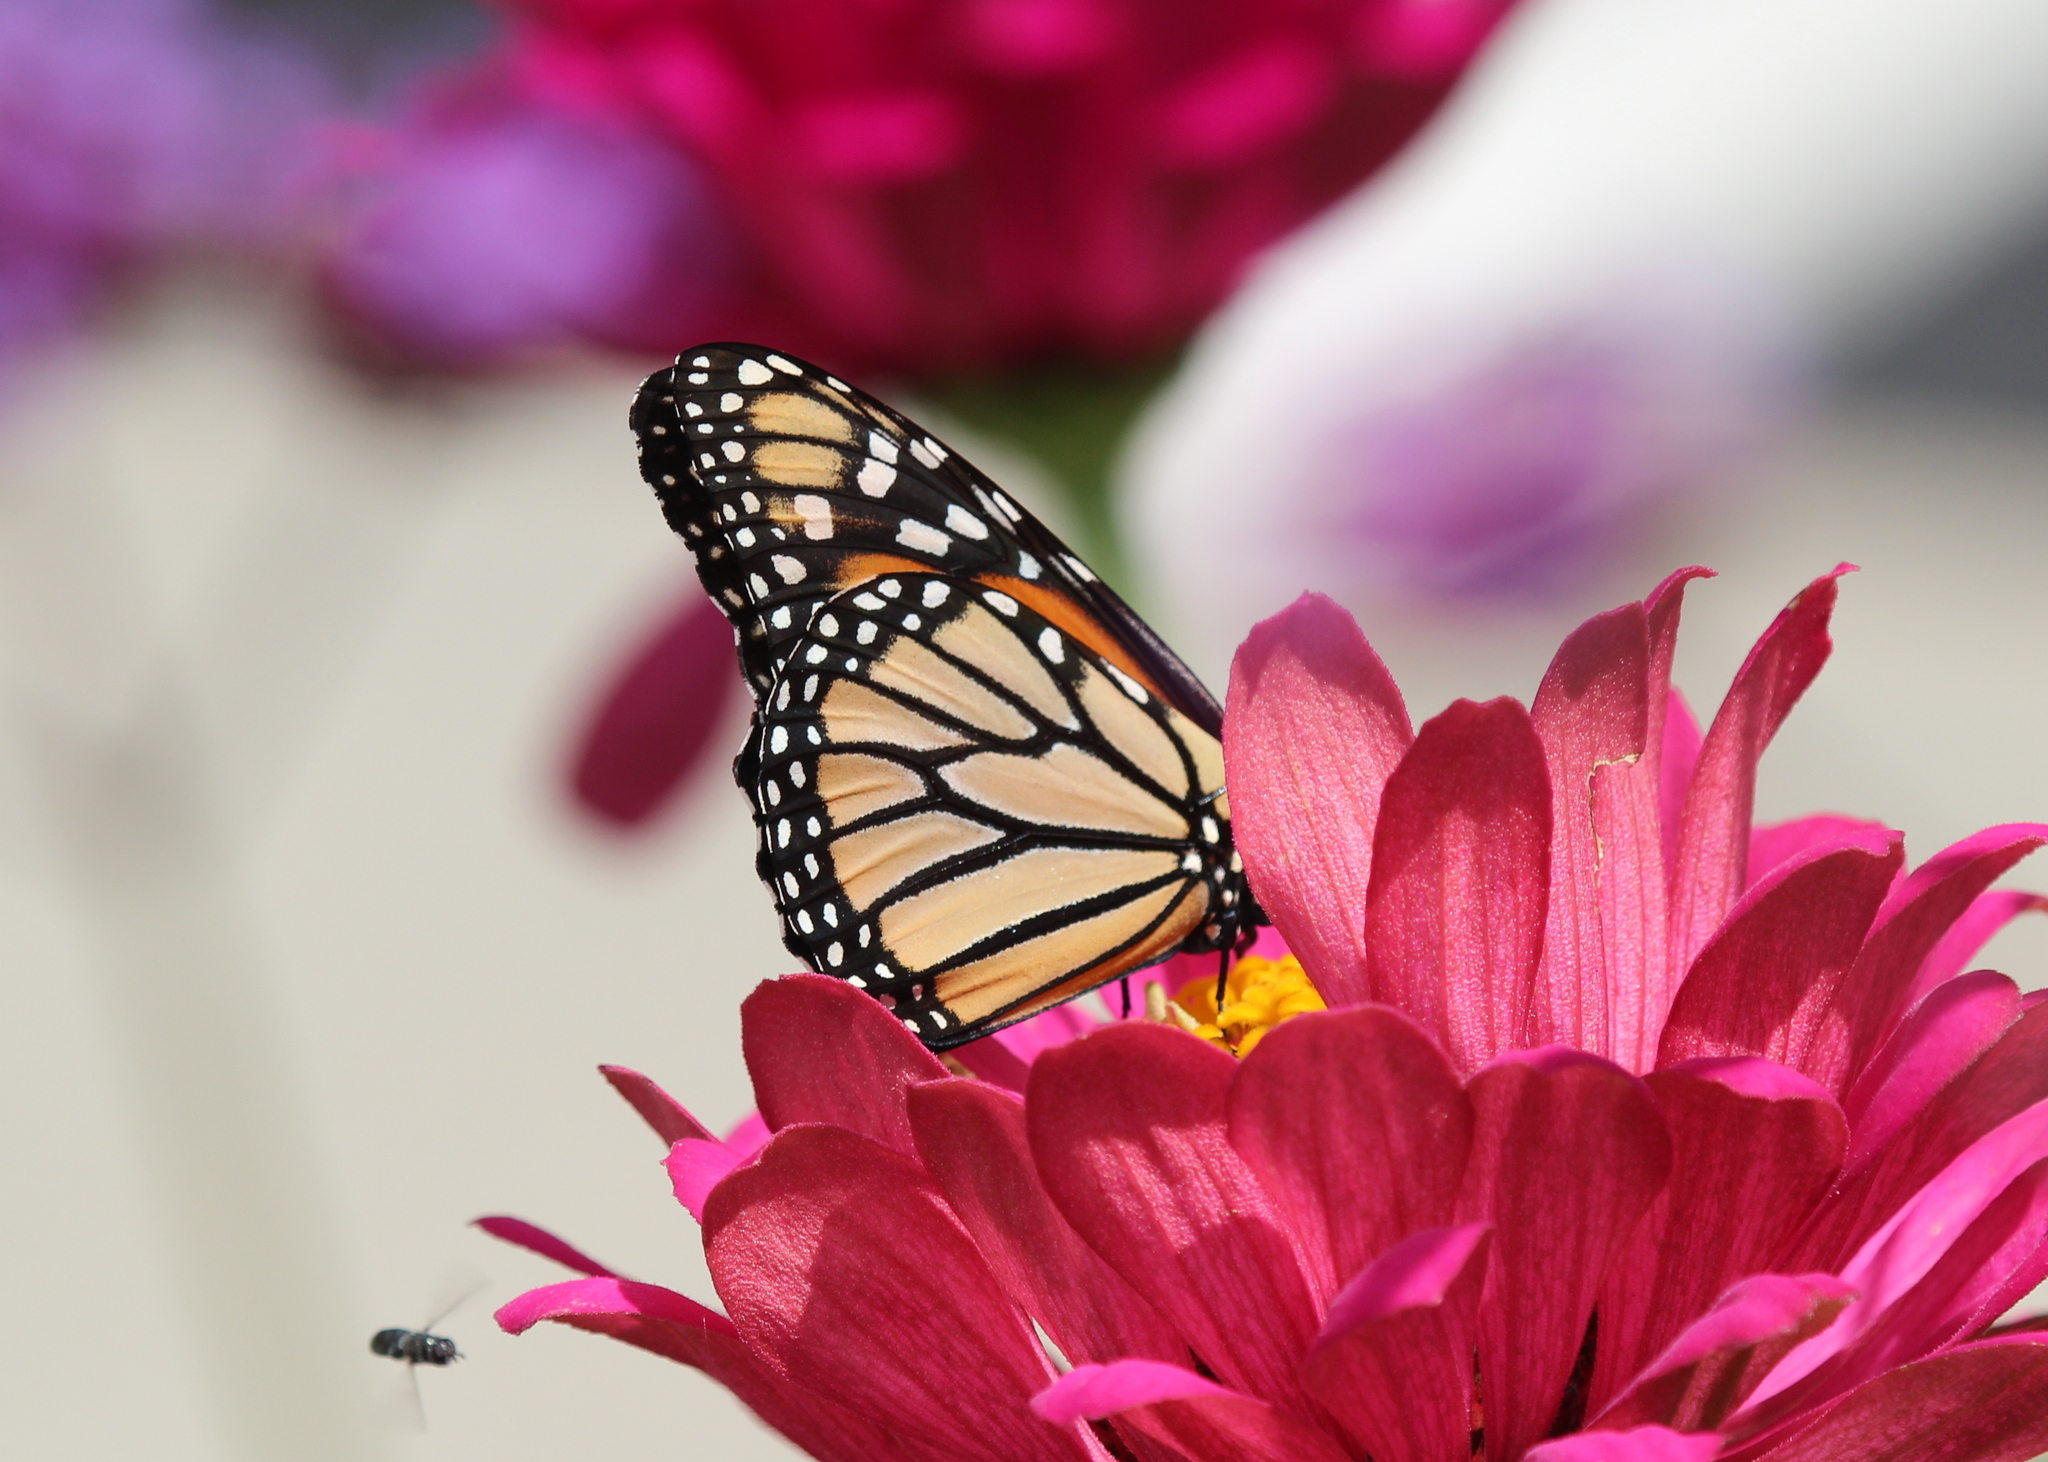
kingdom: Animalia
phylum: Arthropoda
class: Insecta
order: Lepidoptera
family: Nymphalidae
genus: Danaus
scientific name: Danaus plexippus
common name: Monarch
